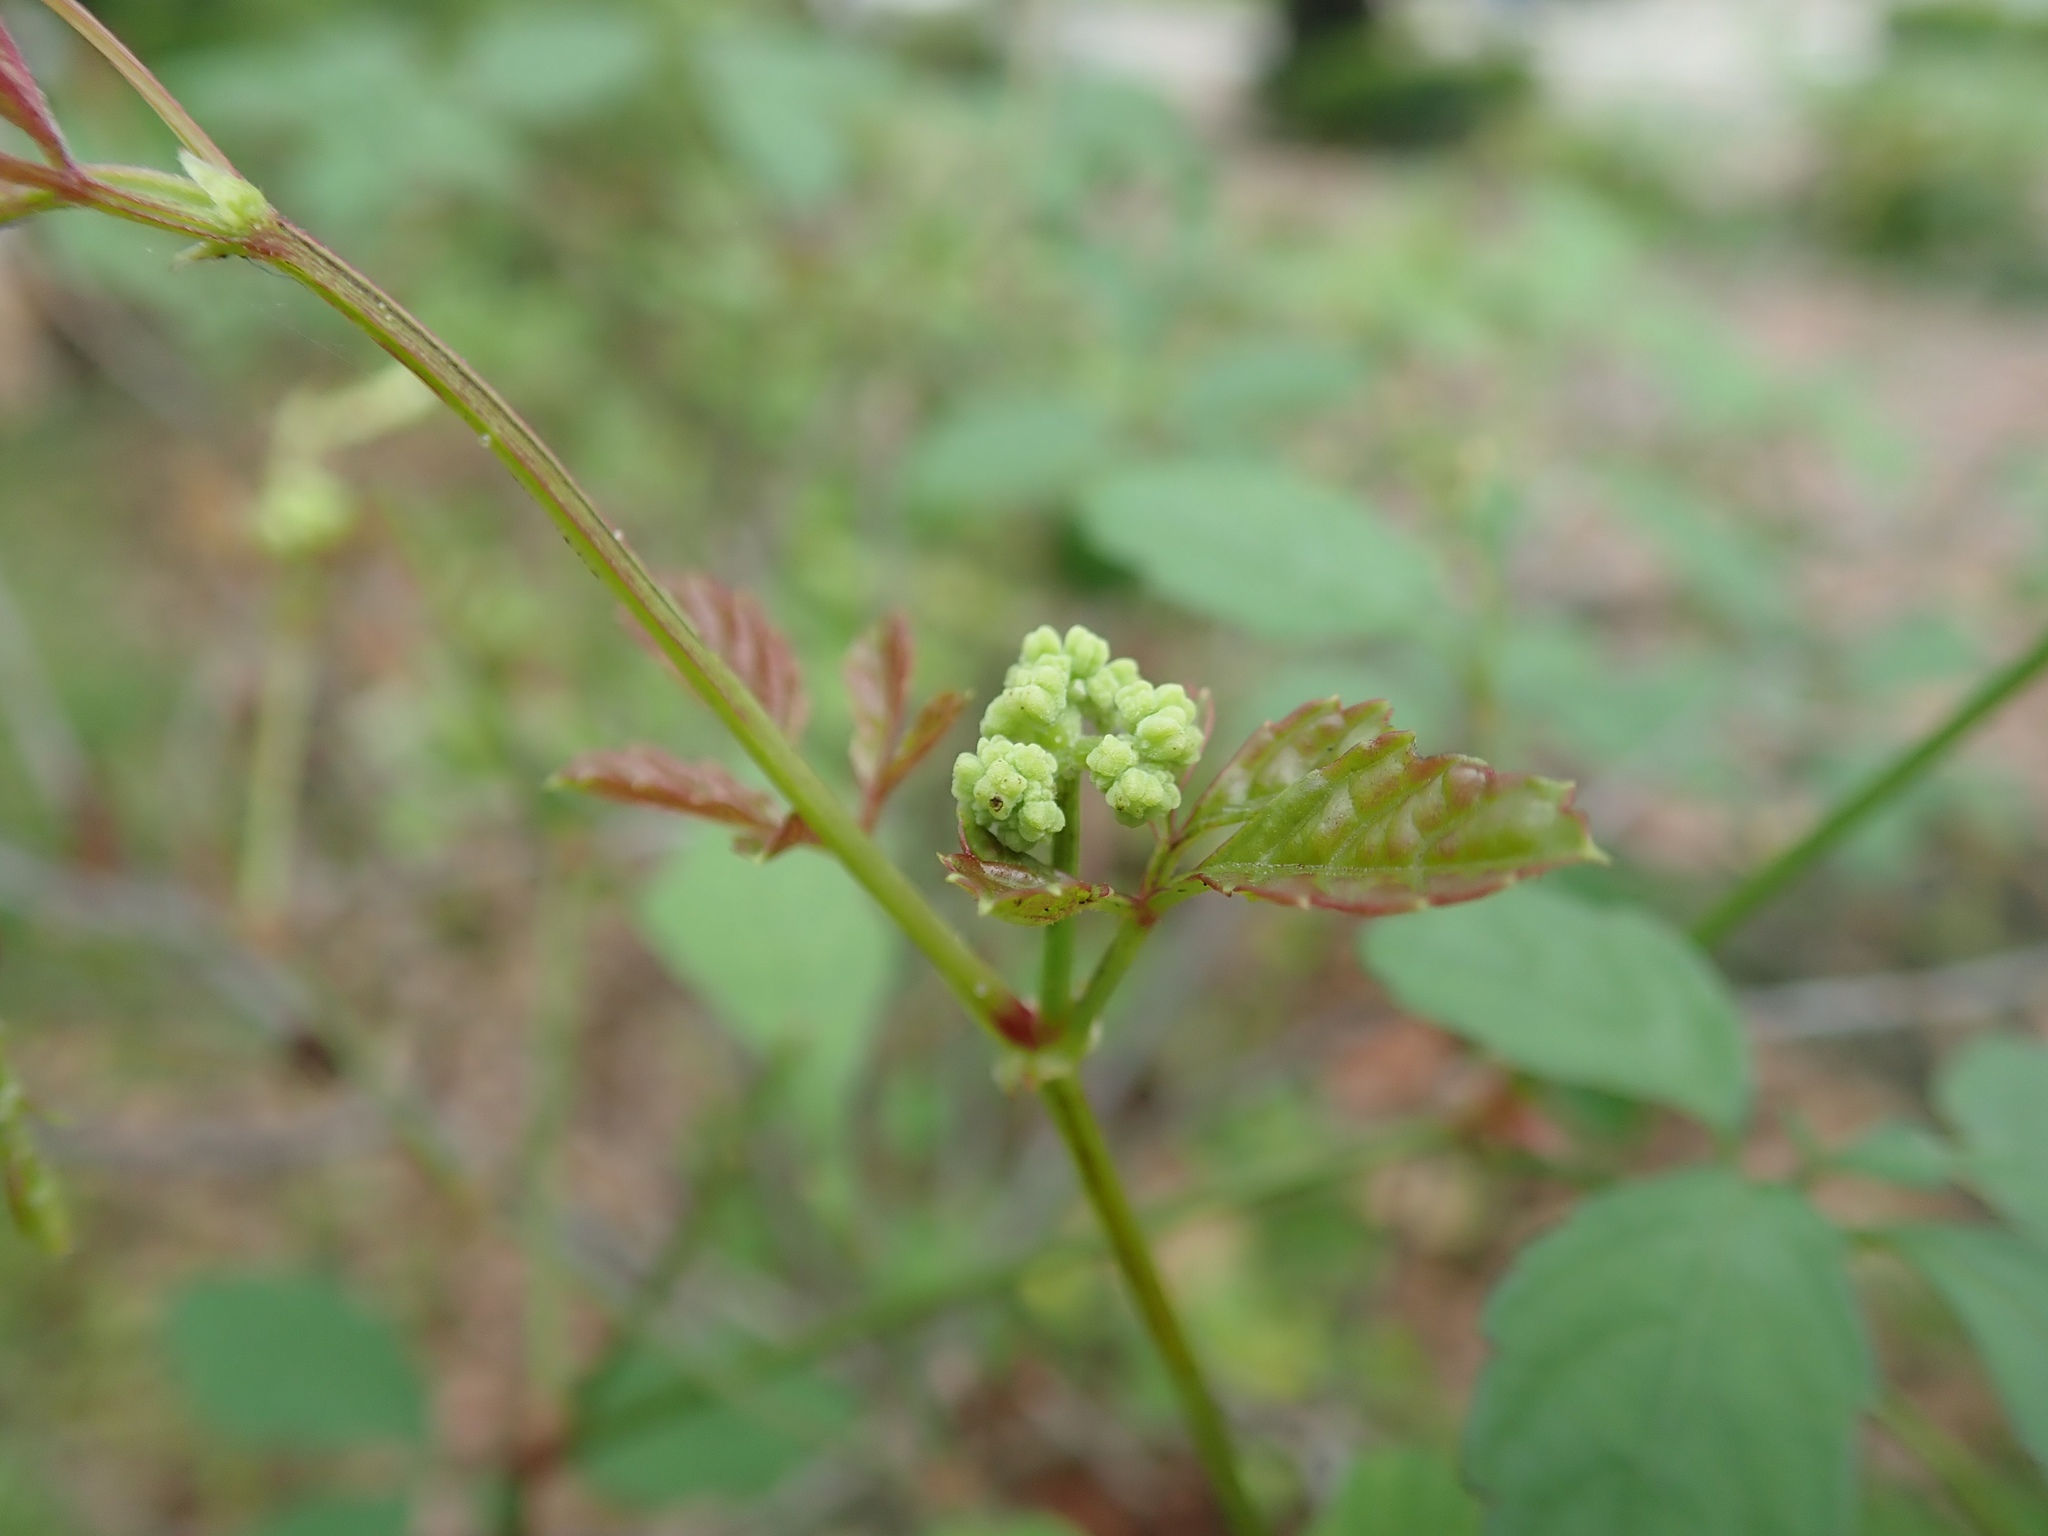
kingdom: Plantae
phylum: Tracheophyta
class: Magnoliopsida
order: Vitales
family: Vitaceae
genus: Causonis
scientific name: Causonis japonica
